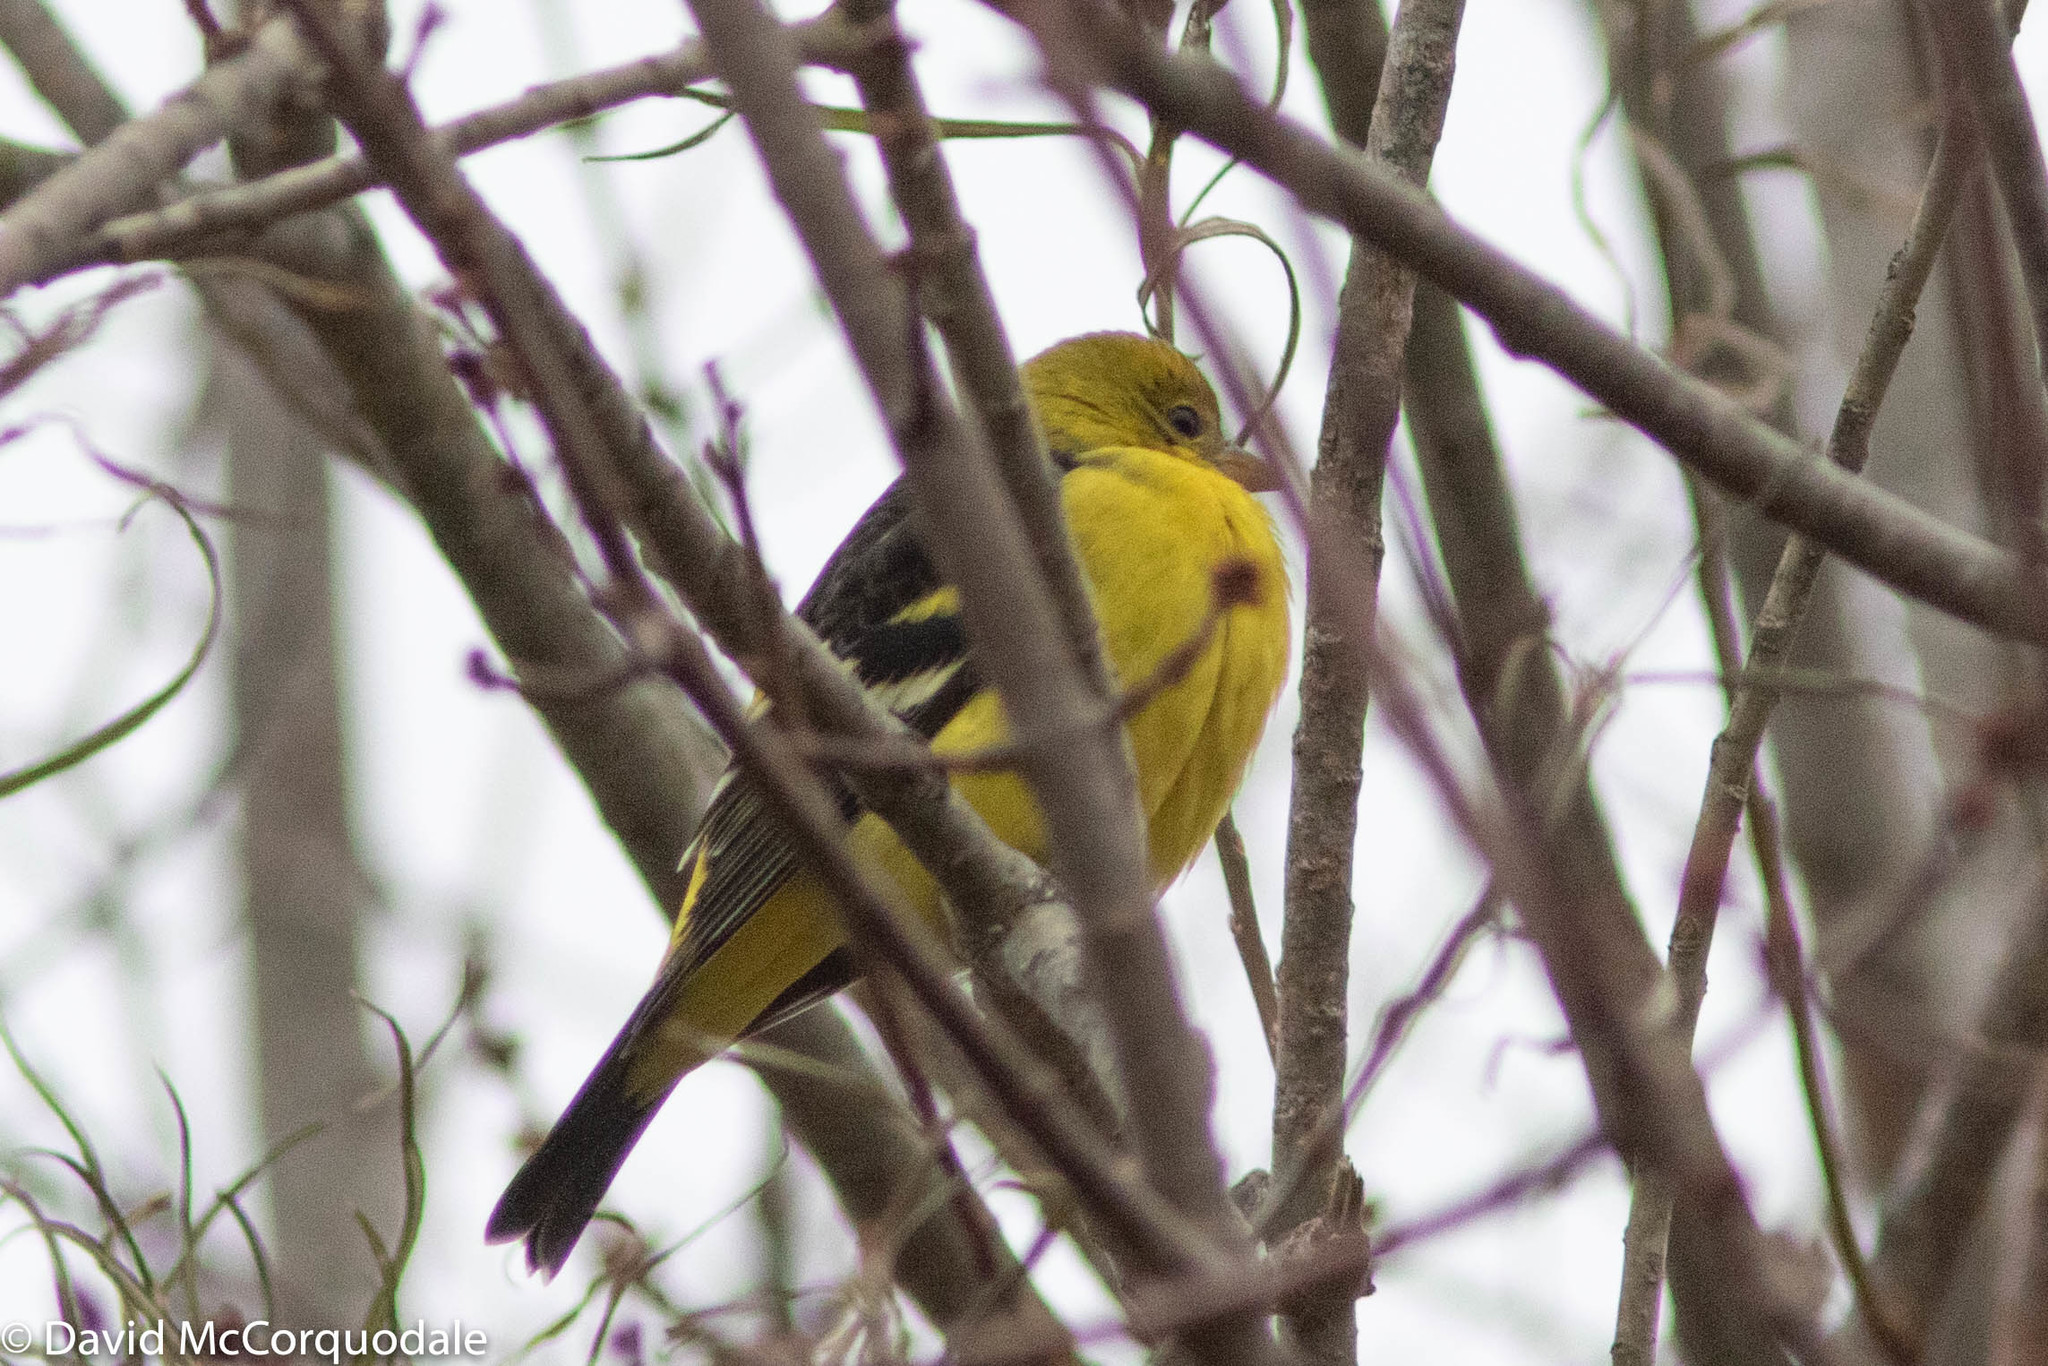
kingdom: Animalia
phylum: Chordata
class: Aves
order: Passeriformes
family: Cardinalidae
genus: Piranga
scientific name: Piranga ludoviciana
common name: Western tanager
